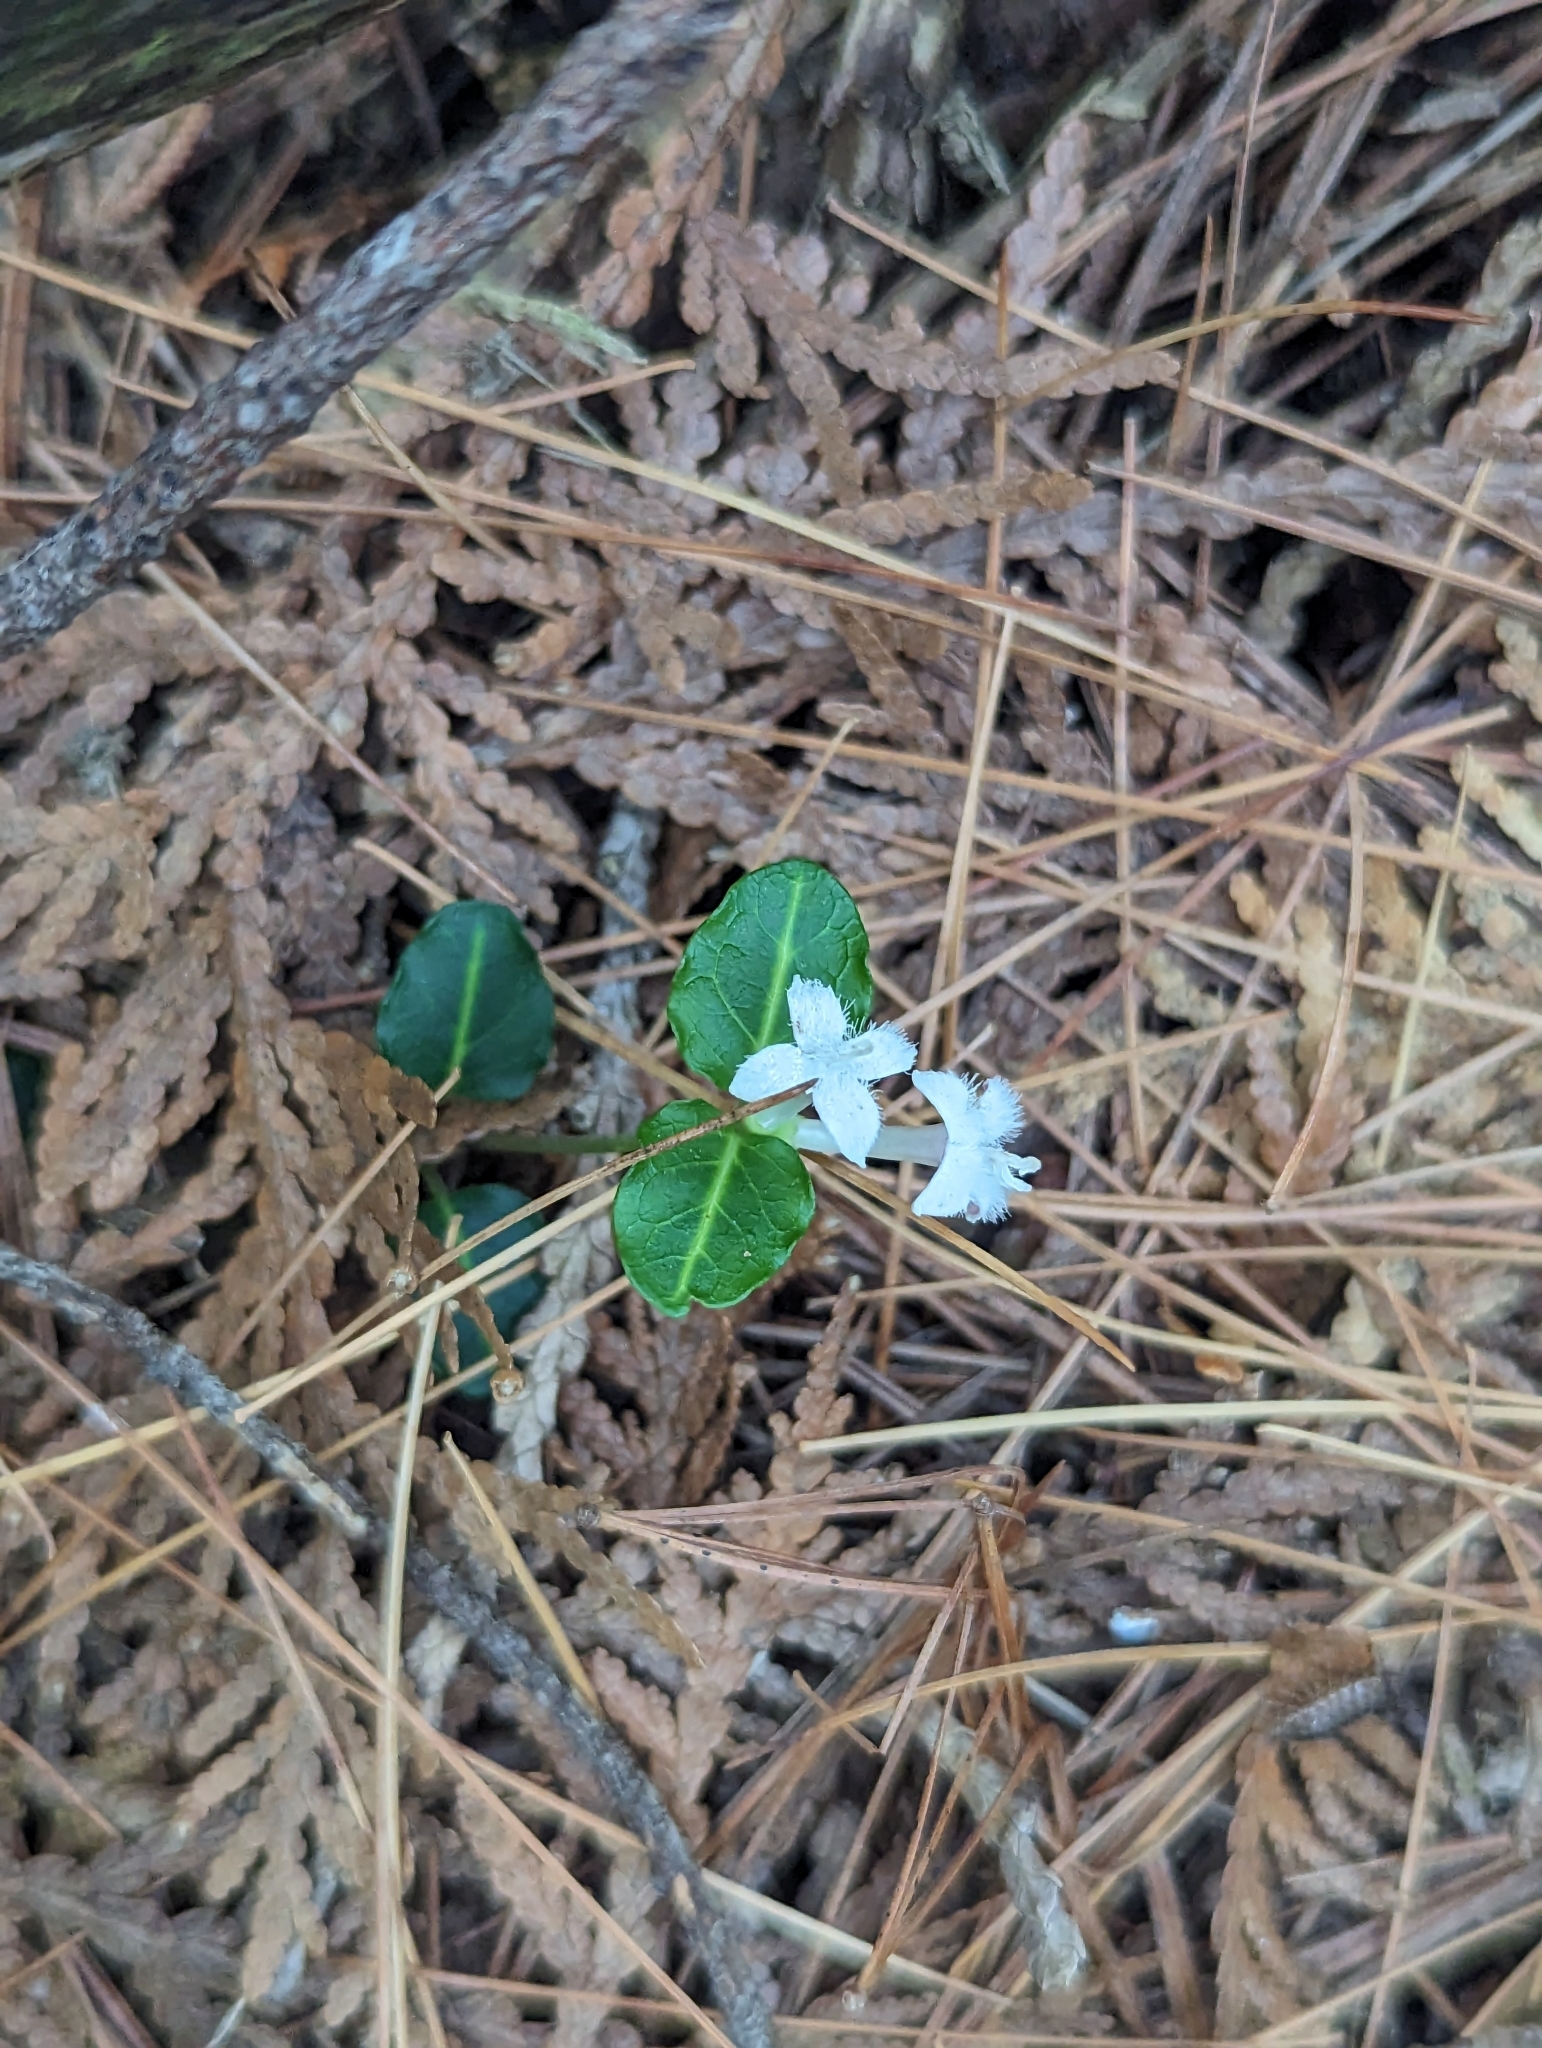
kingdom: Plantae
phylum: Tracheophyta
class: Magnoliopsida
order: Gentianales
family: Rubiaceae
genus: Mitchella
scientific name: Mitchella repens
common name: Partridge-berry
